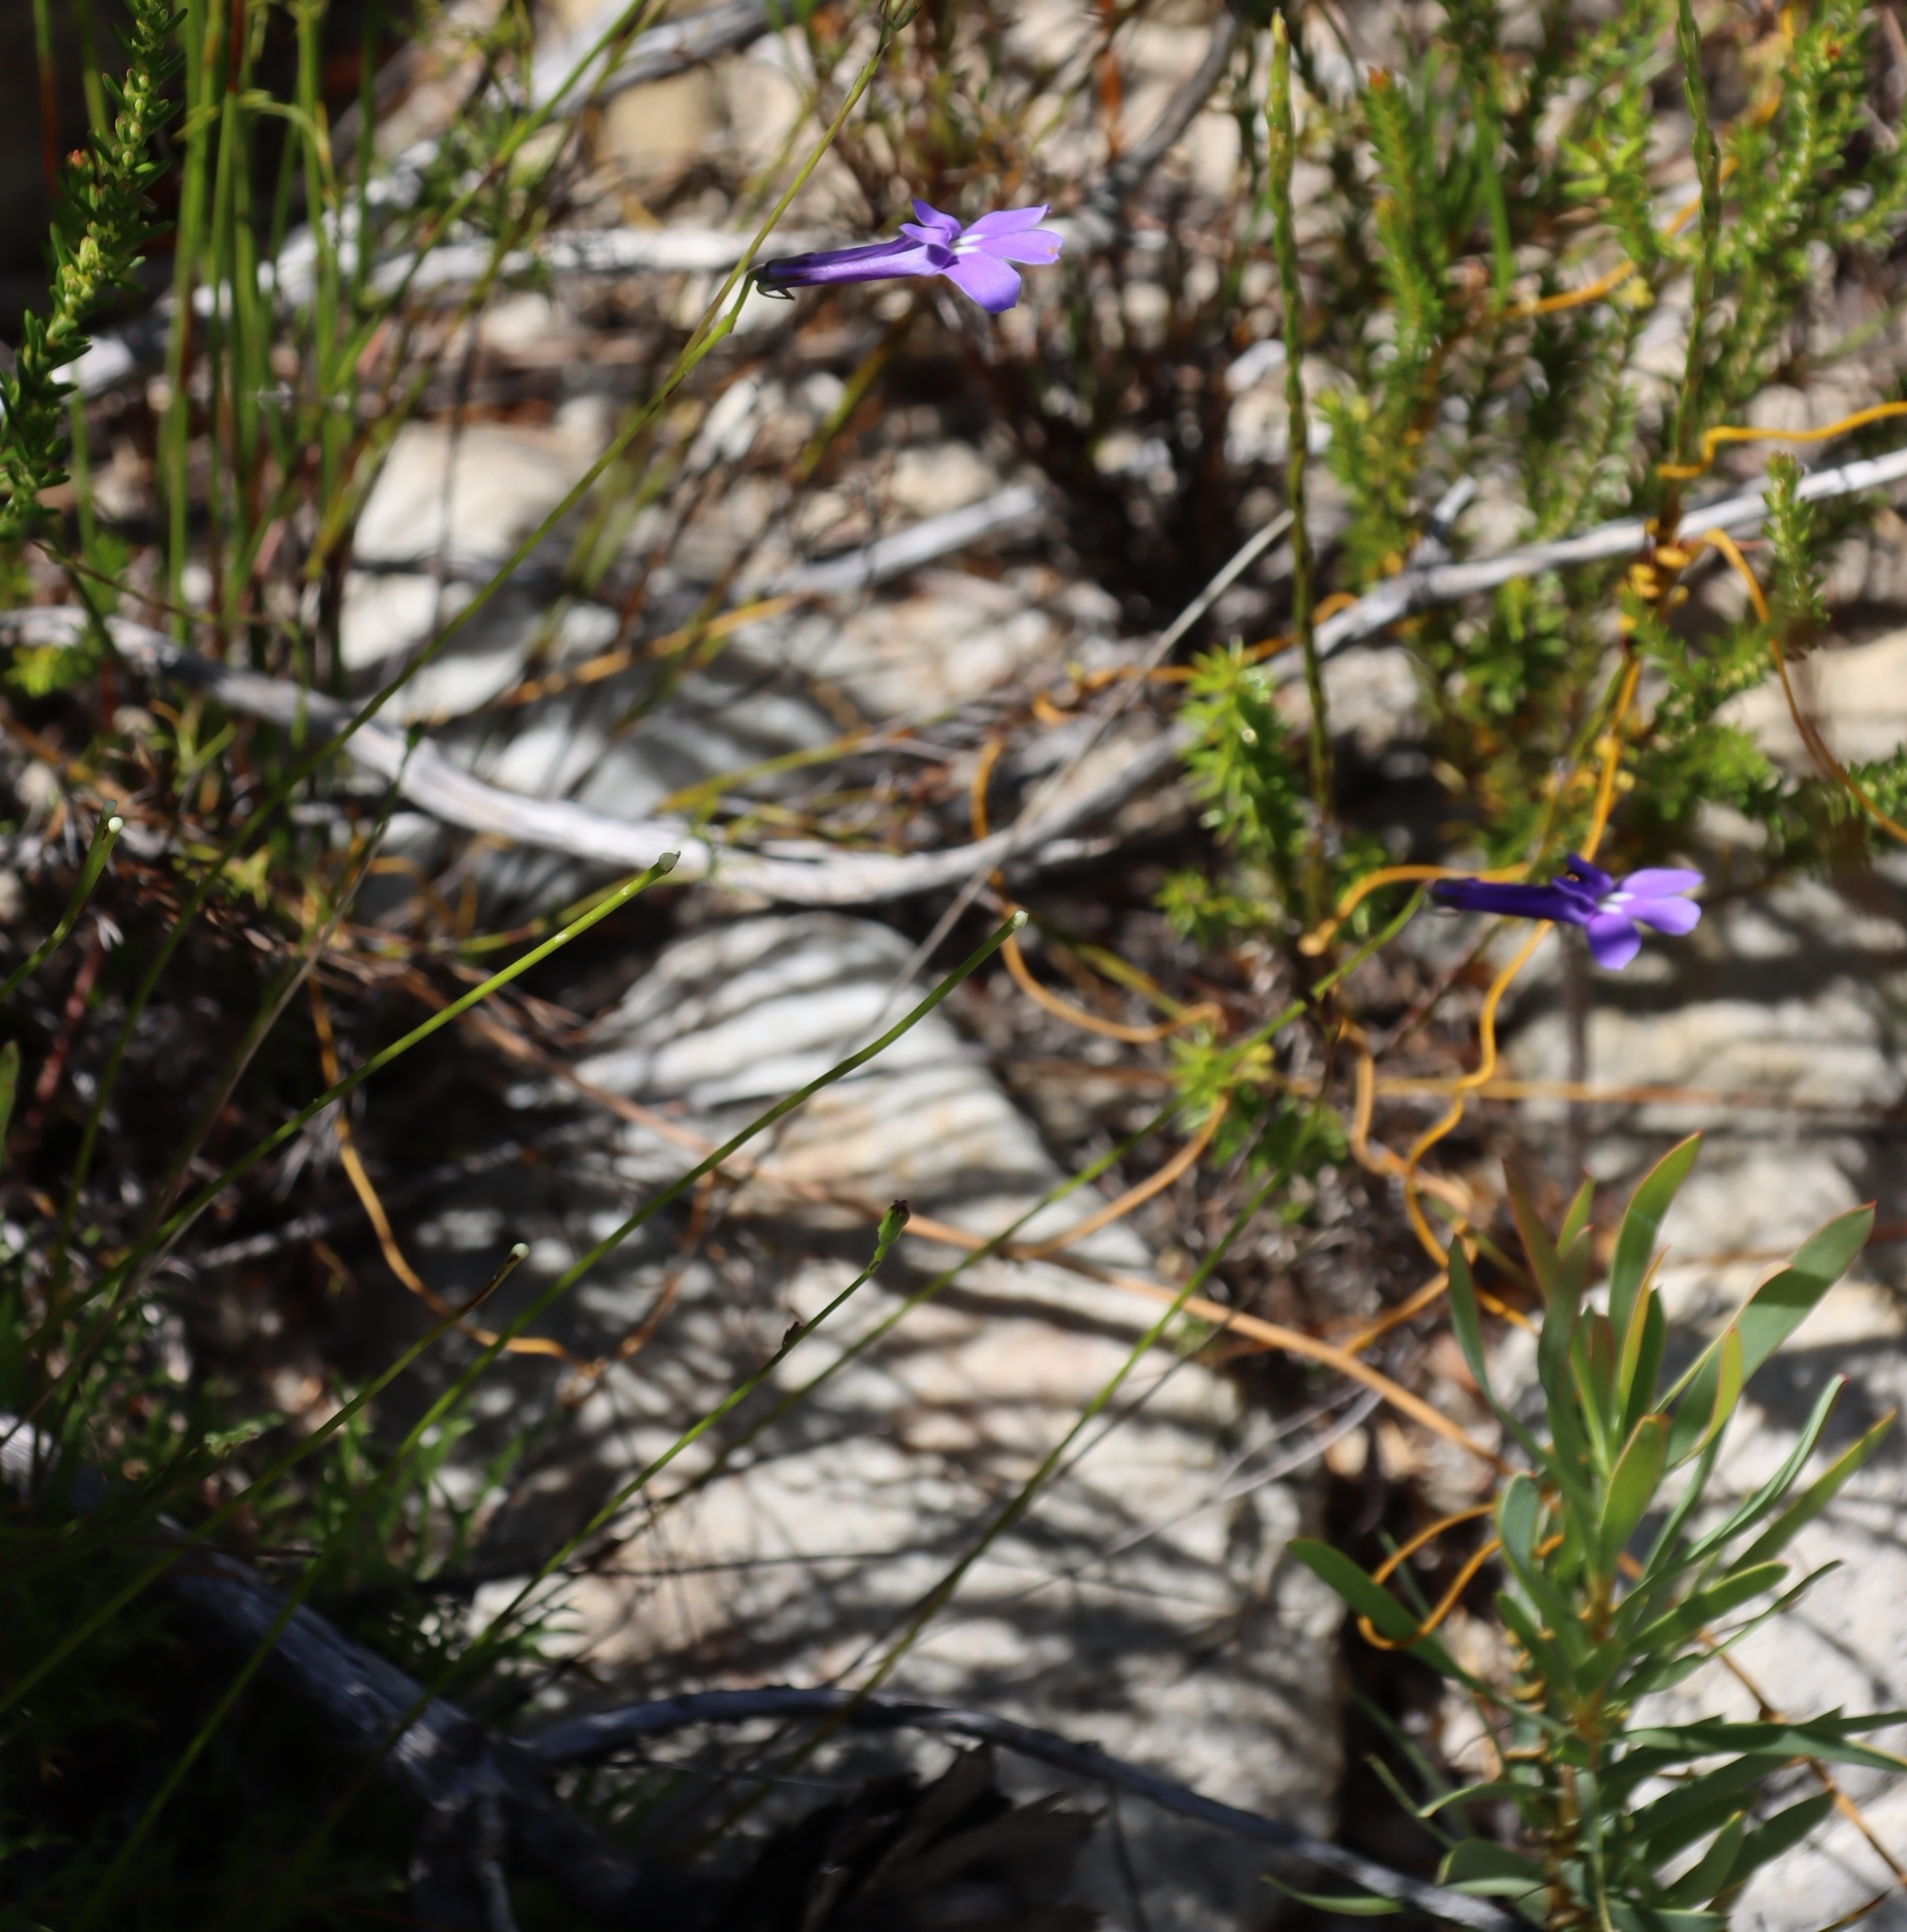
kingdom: Plantae
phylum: Tracheophyta
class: Magnoliopsida
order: Asterales
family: Campanulaceae
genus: Lobelia
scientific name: Lobelia coronopifolia
